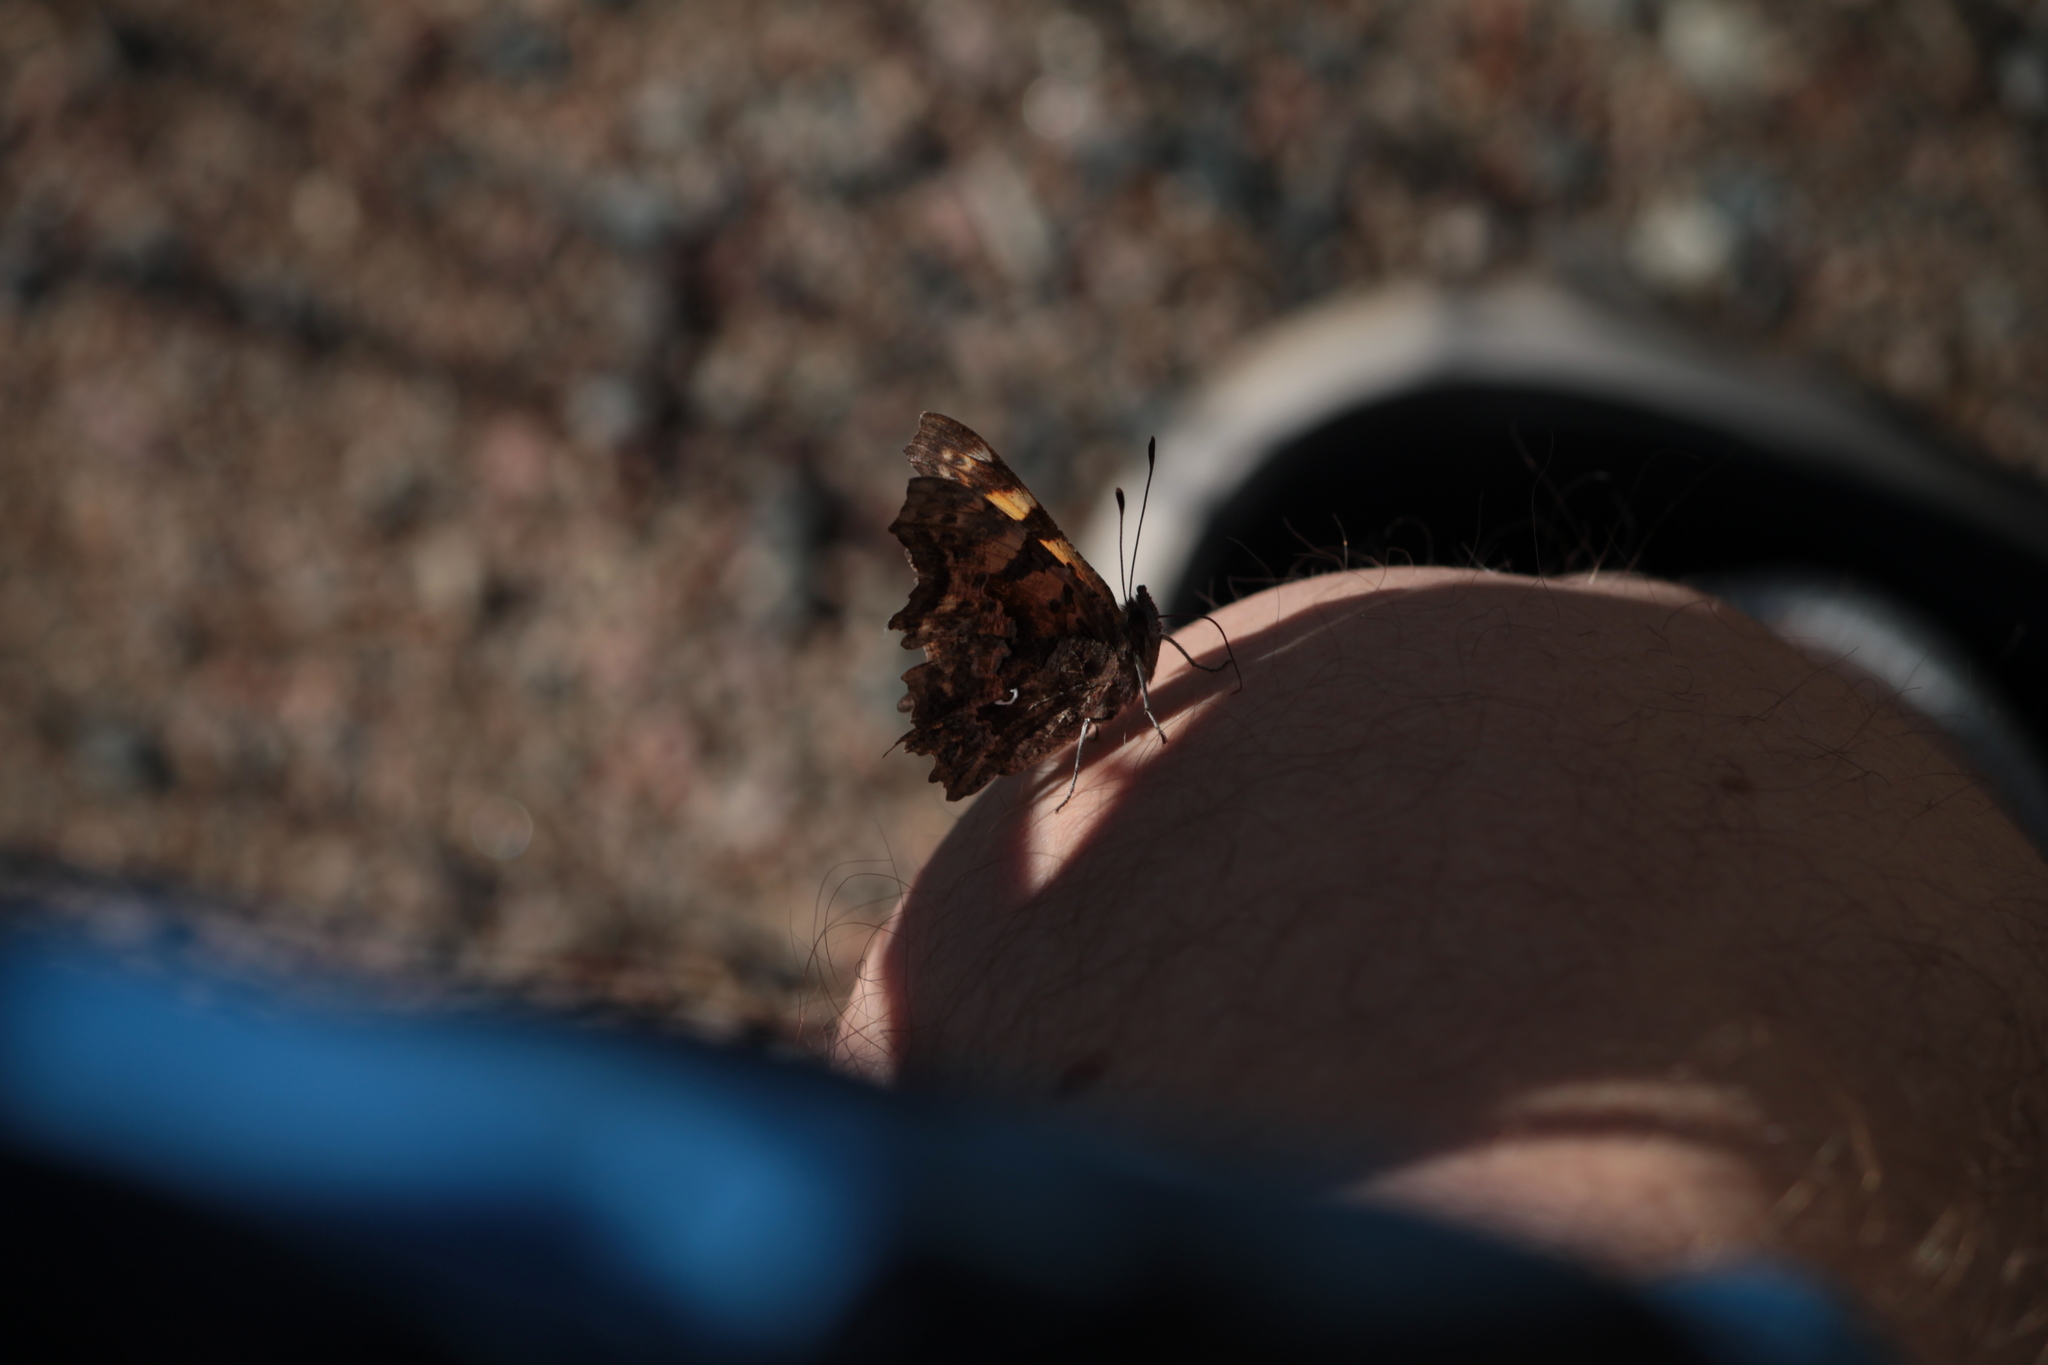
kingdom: Animalia
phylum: Arthropoda
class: Insecta
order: Lepidoptera
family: Nymphalidae
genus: Polygonia
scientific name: Polygonia c-album
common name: Comma
